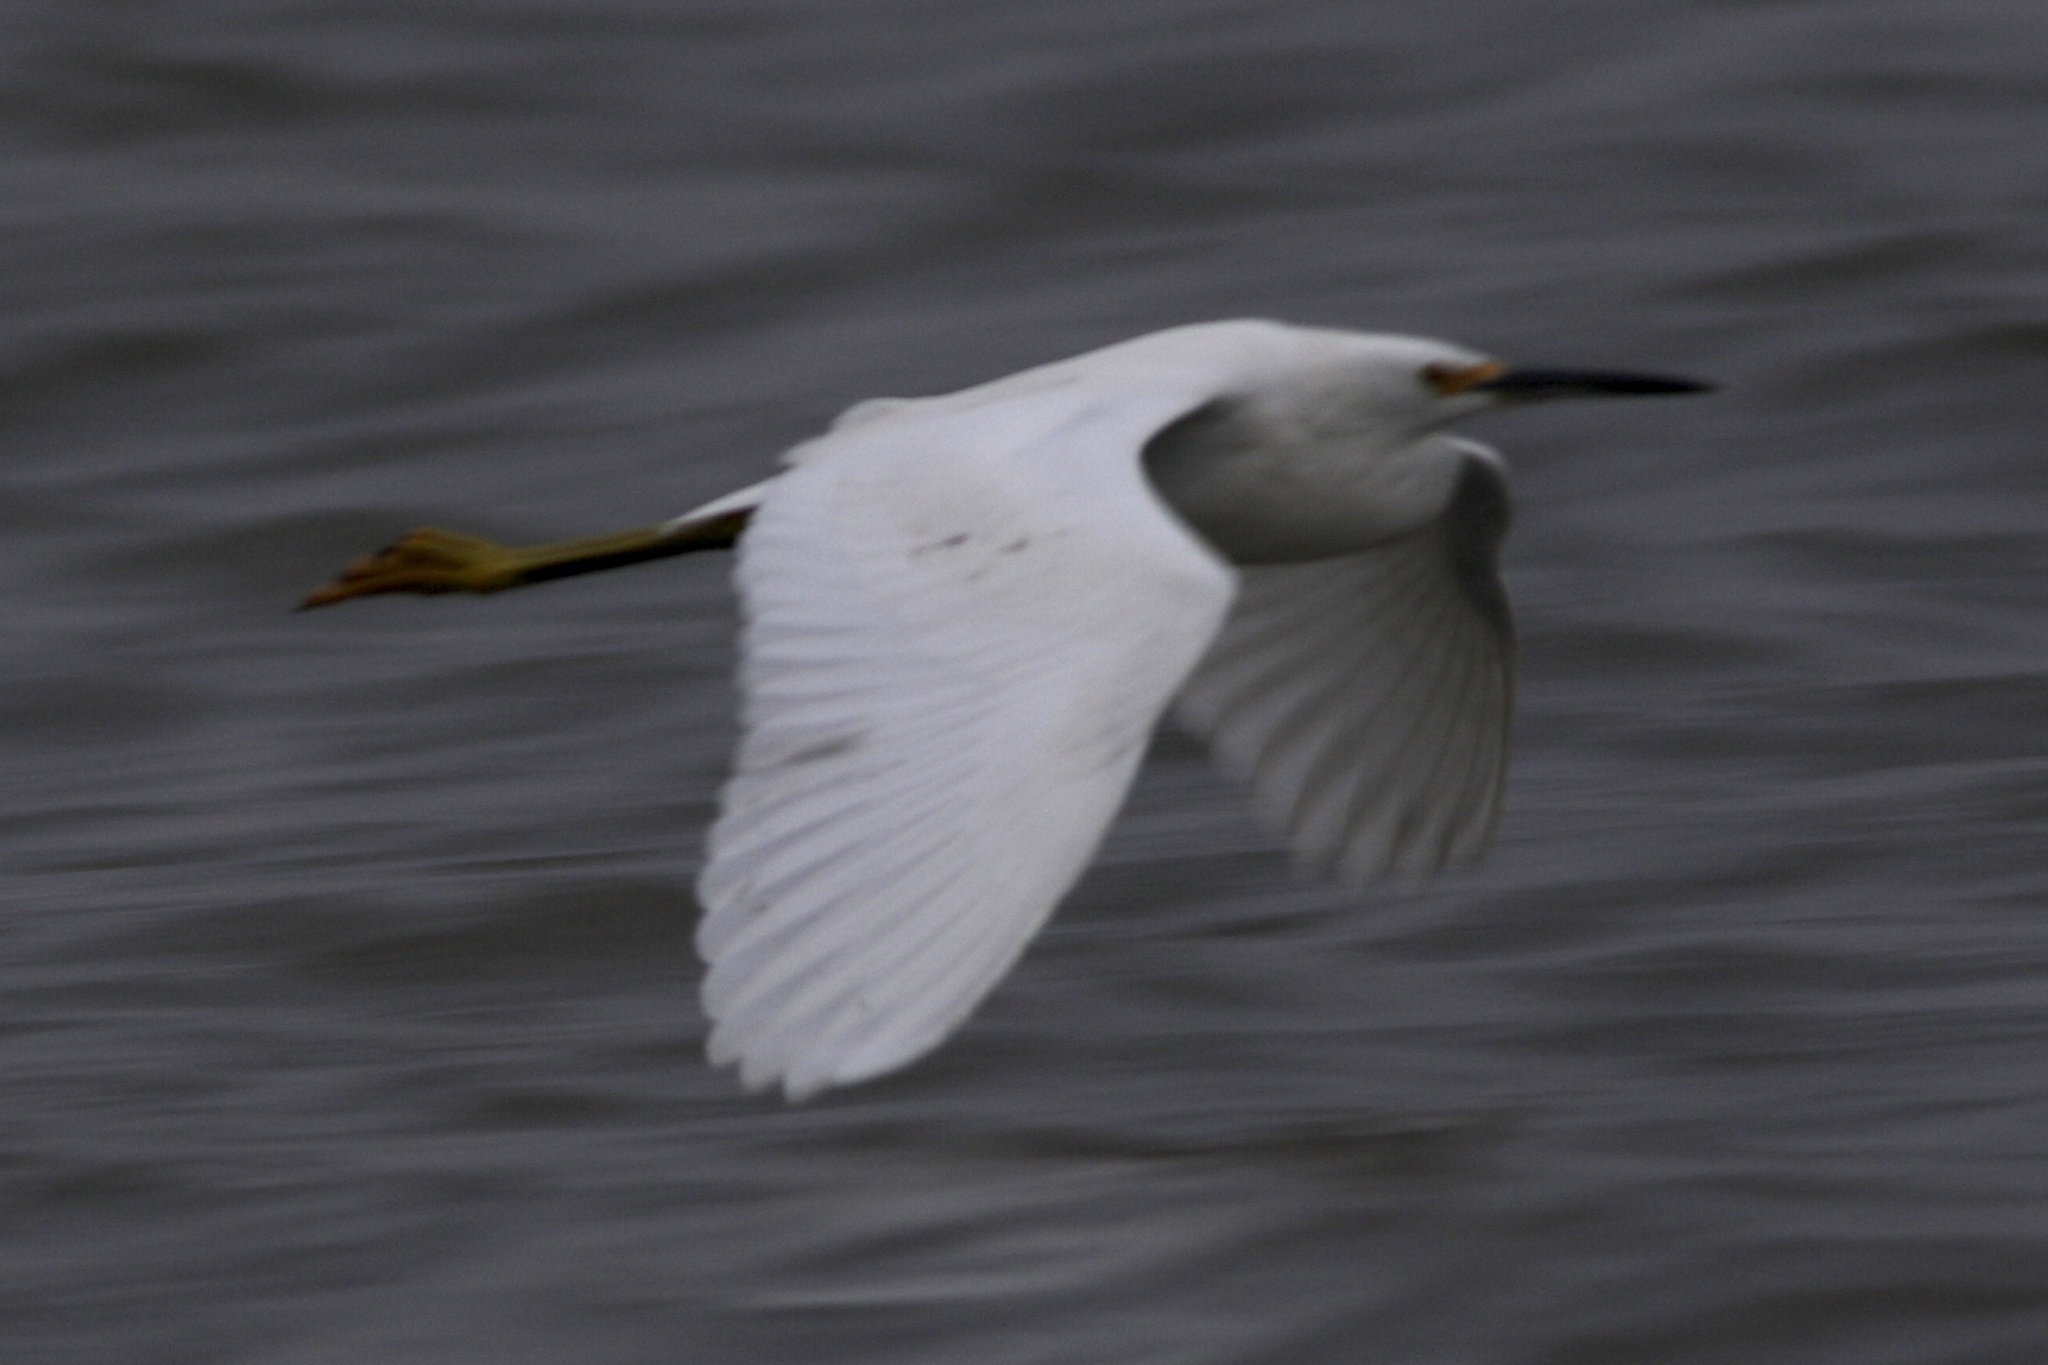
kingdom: Animalia
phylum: Chordata
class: Aves
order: Pelecaniformes
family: Ardeidae
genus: Egretta
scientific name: Egretta thula
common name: Snowy egret
